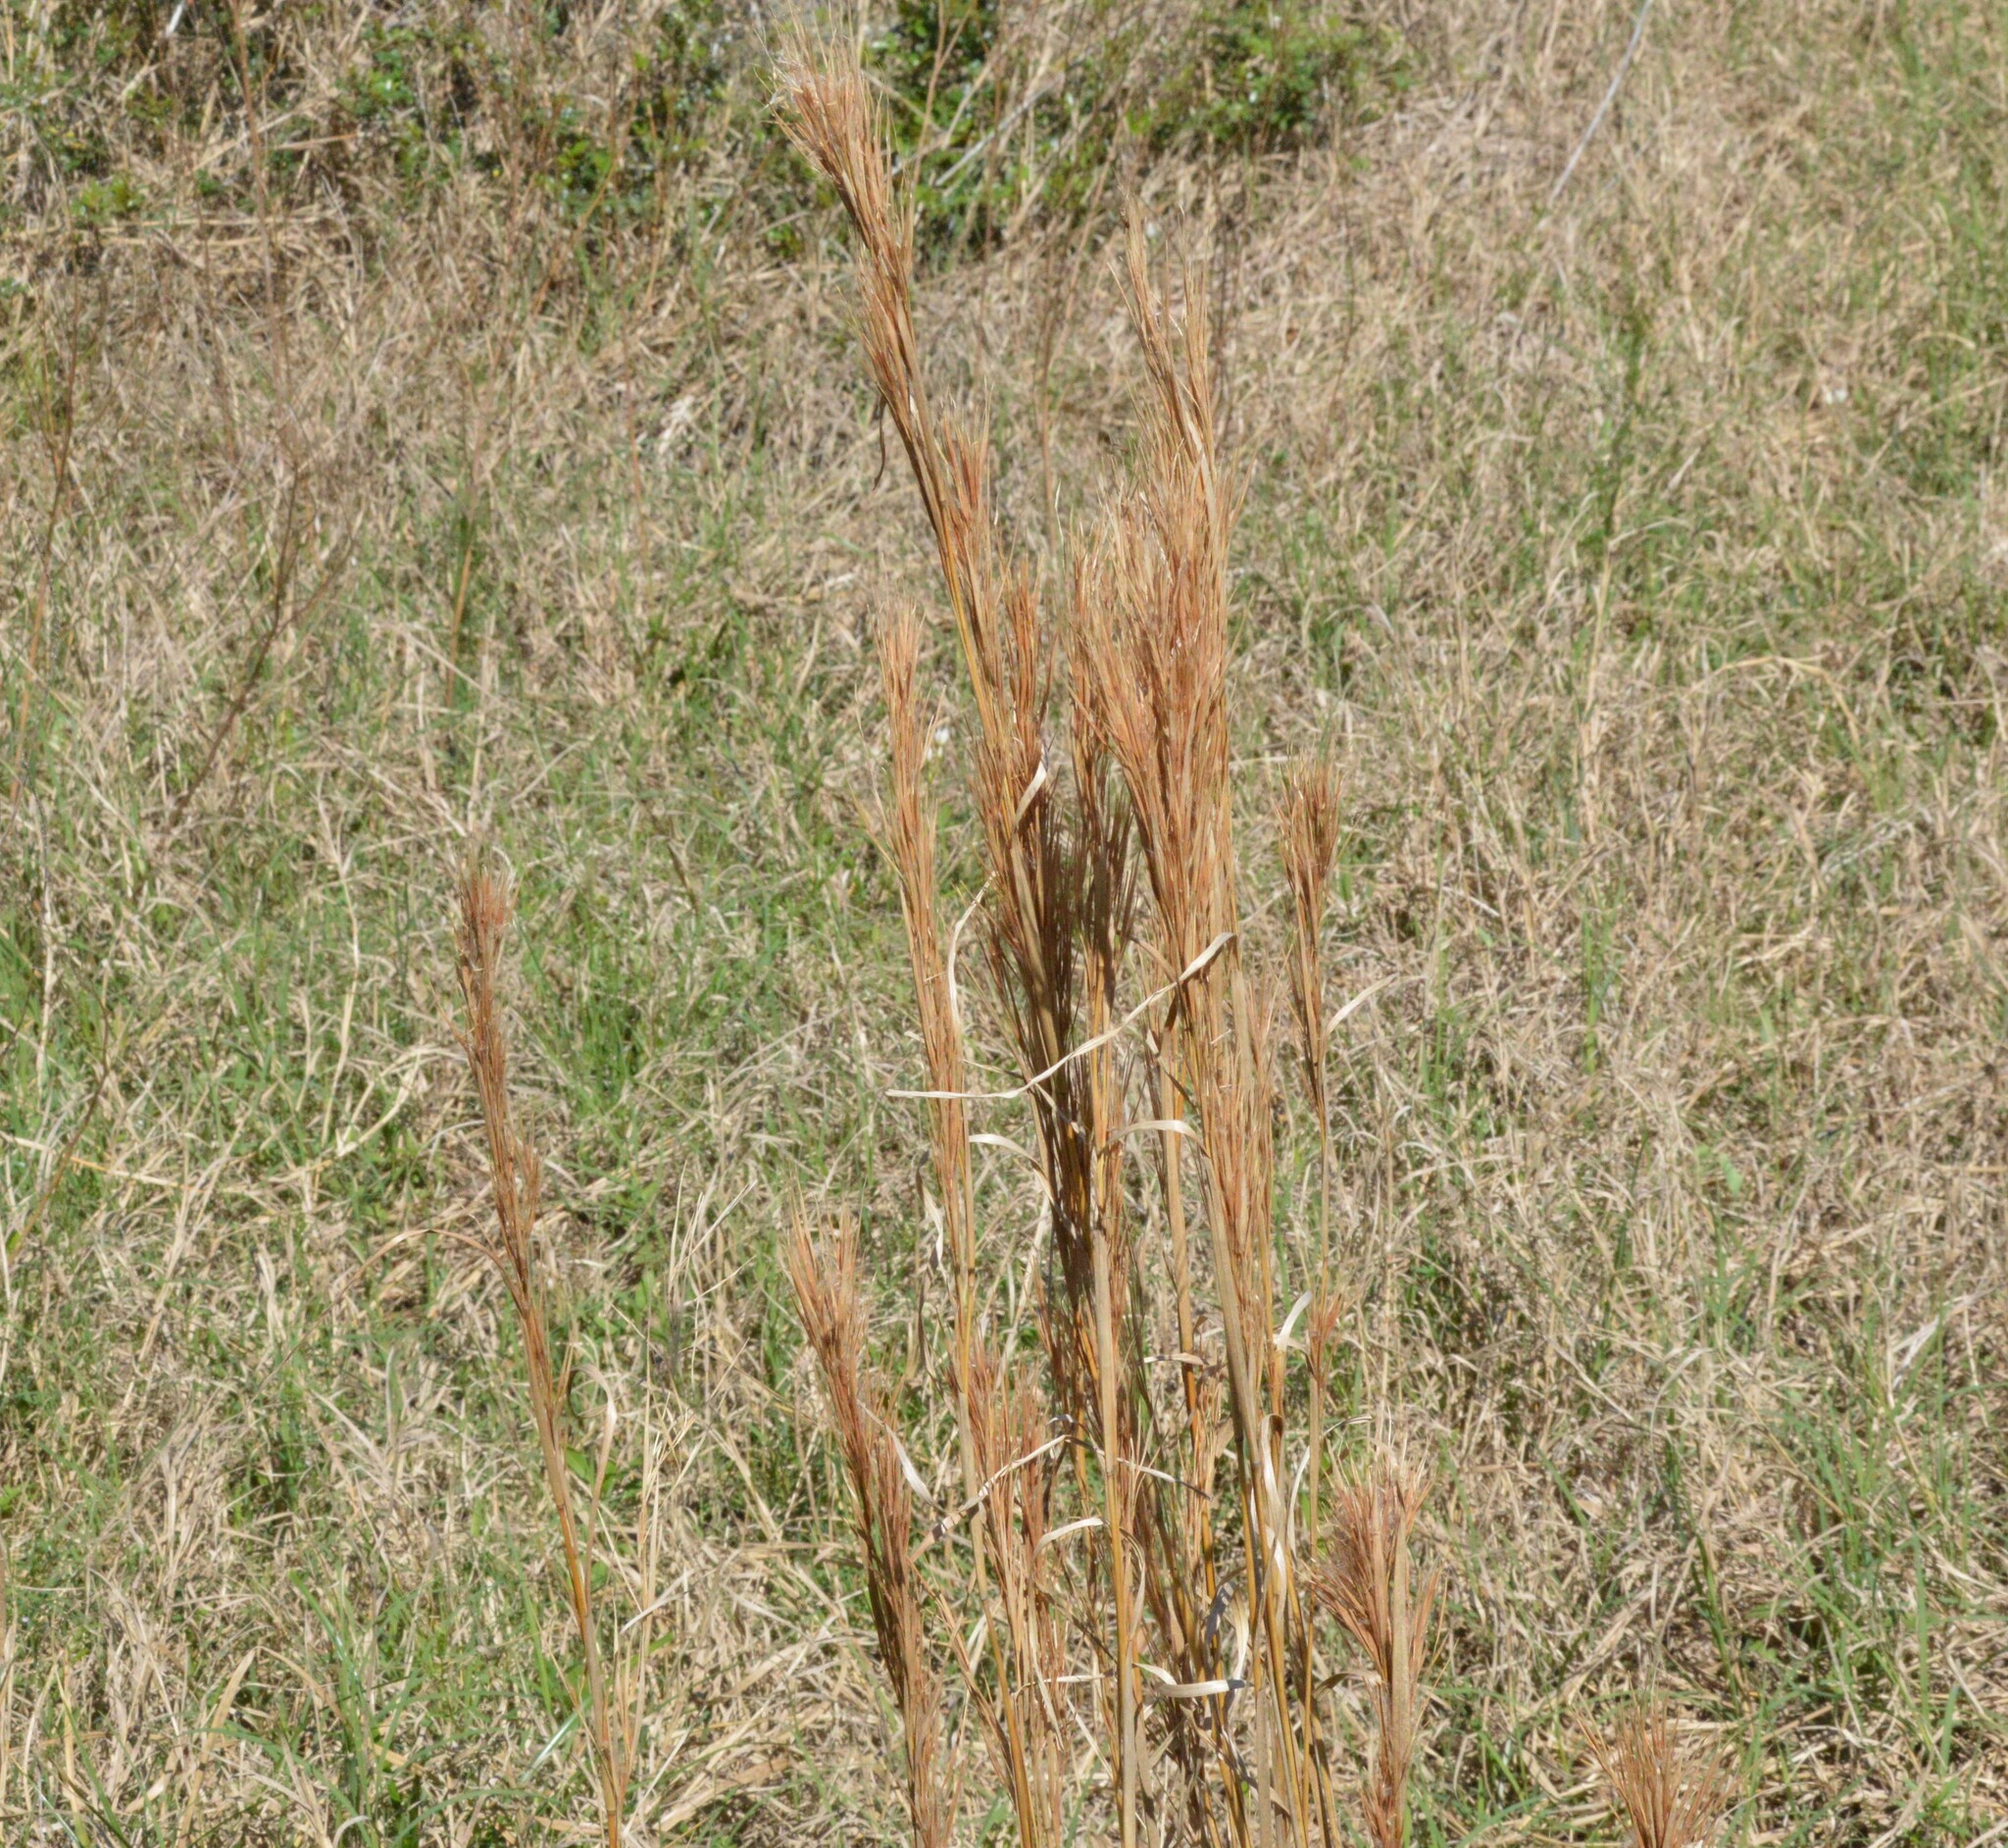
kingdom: Plantae
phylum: Tracheophyta
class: Liliopsida
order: Poales
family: Poaceae
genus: Andropogon
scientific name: Andropogon tenuispatheus
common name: Bushy bluestem
